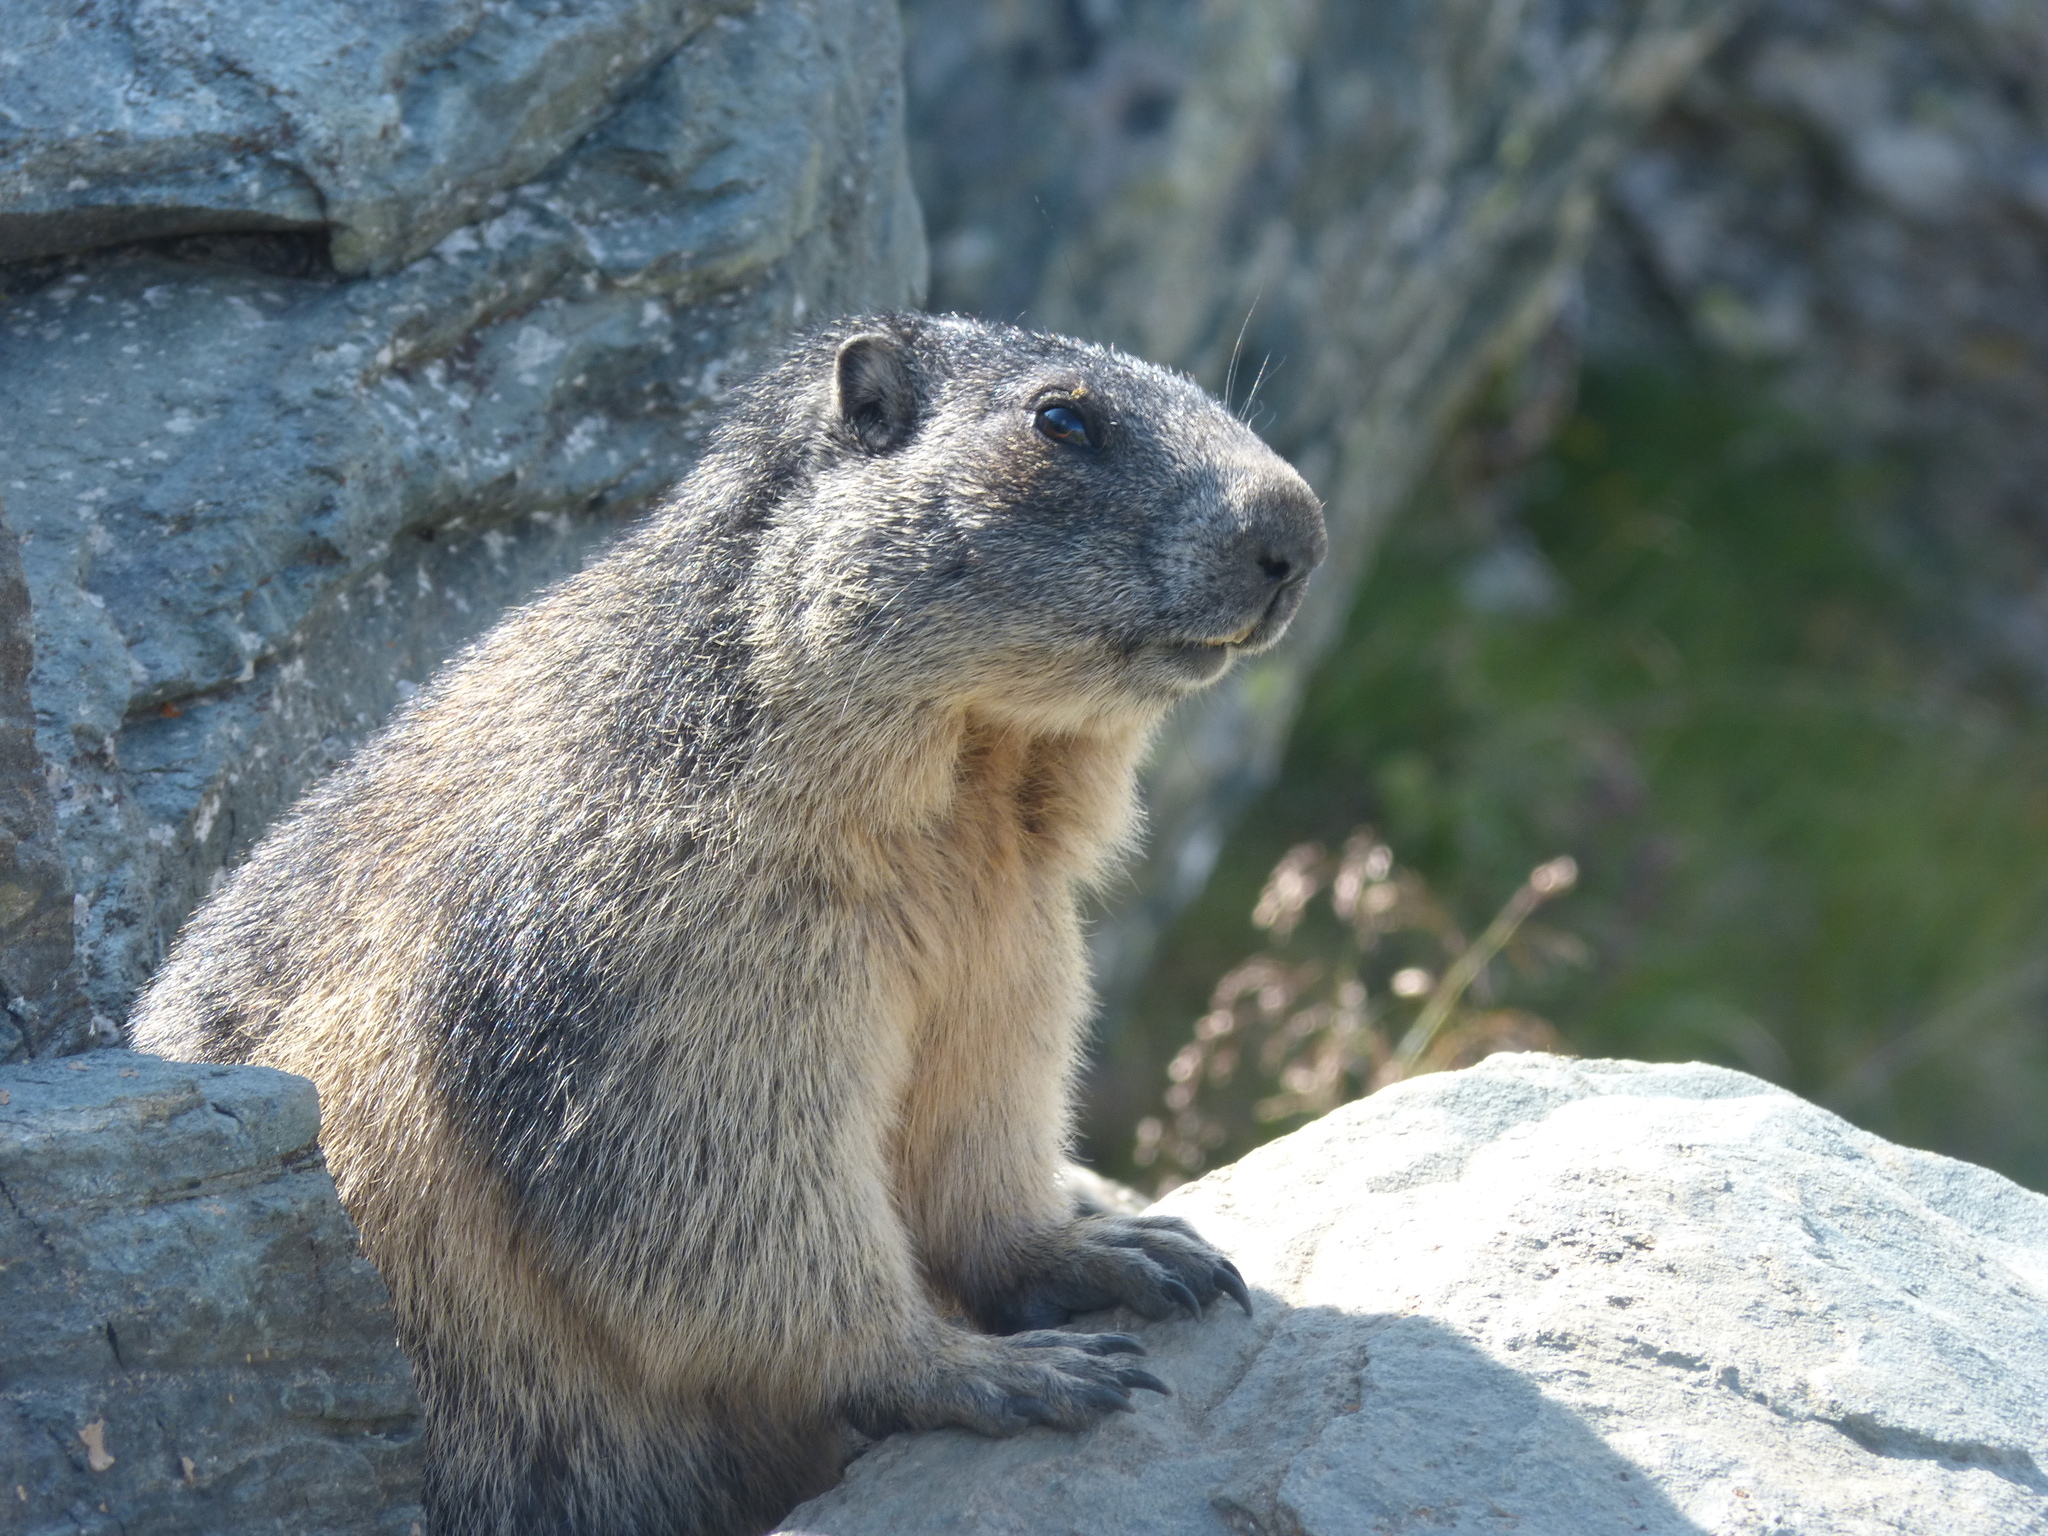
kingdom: Animalia
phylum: Chordata
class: Mammalia
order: Rodentia
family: Sciuridae
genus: Marmota
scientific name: Marmota marmota
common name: Alpine marmot
